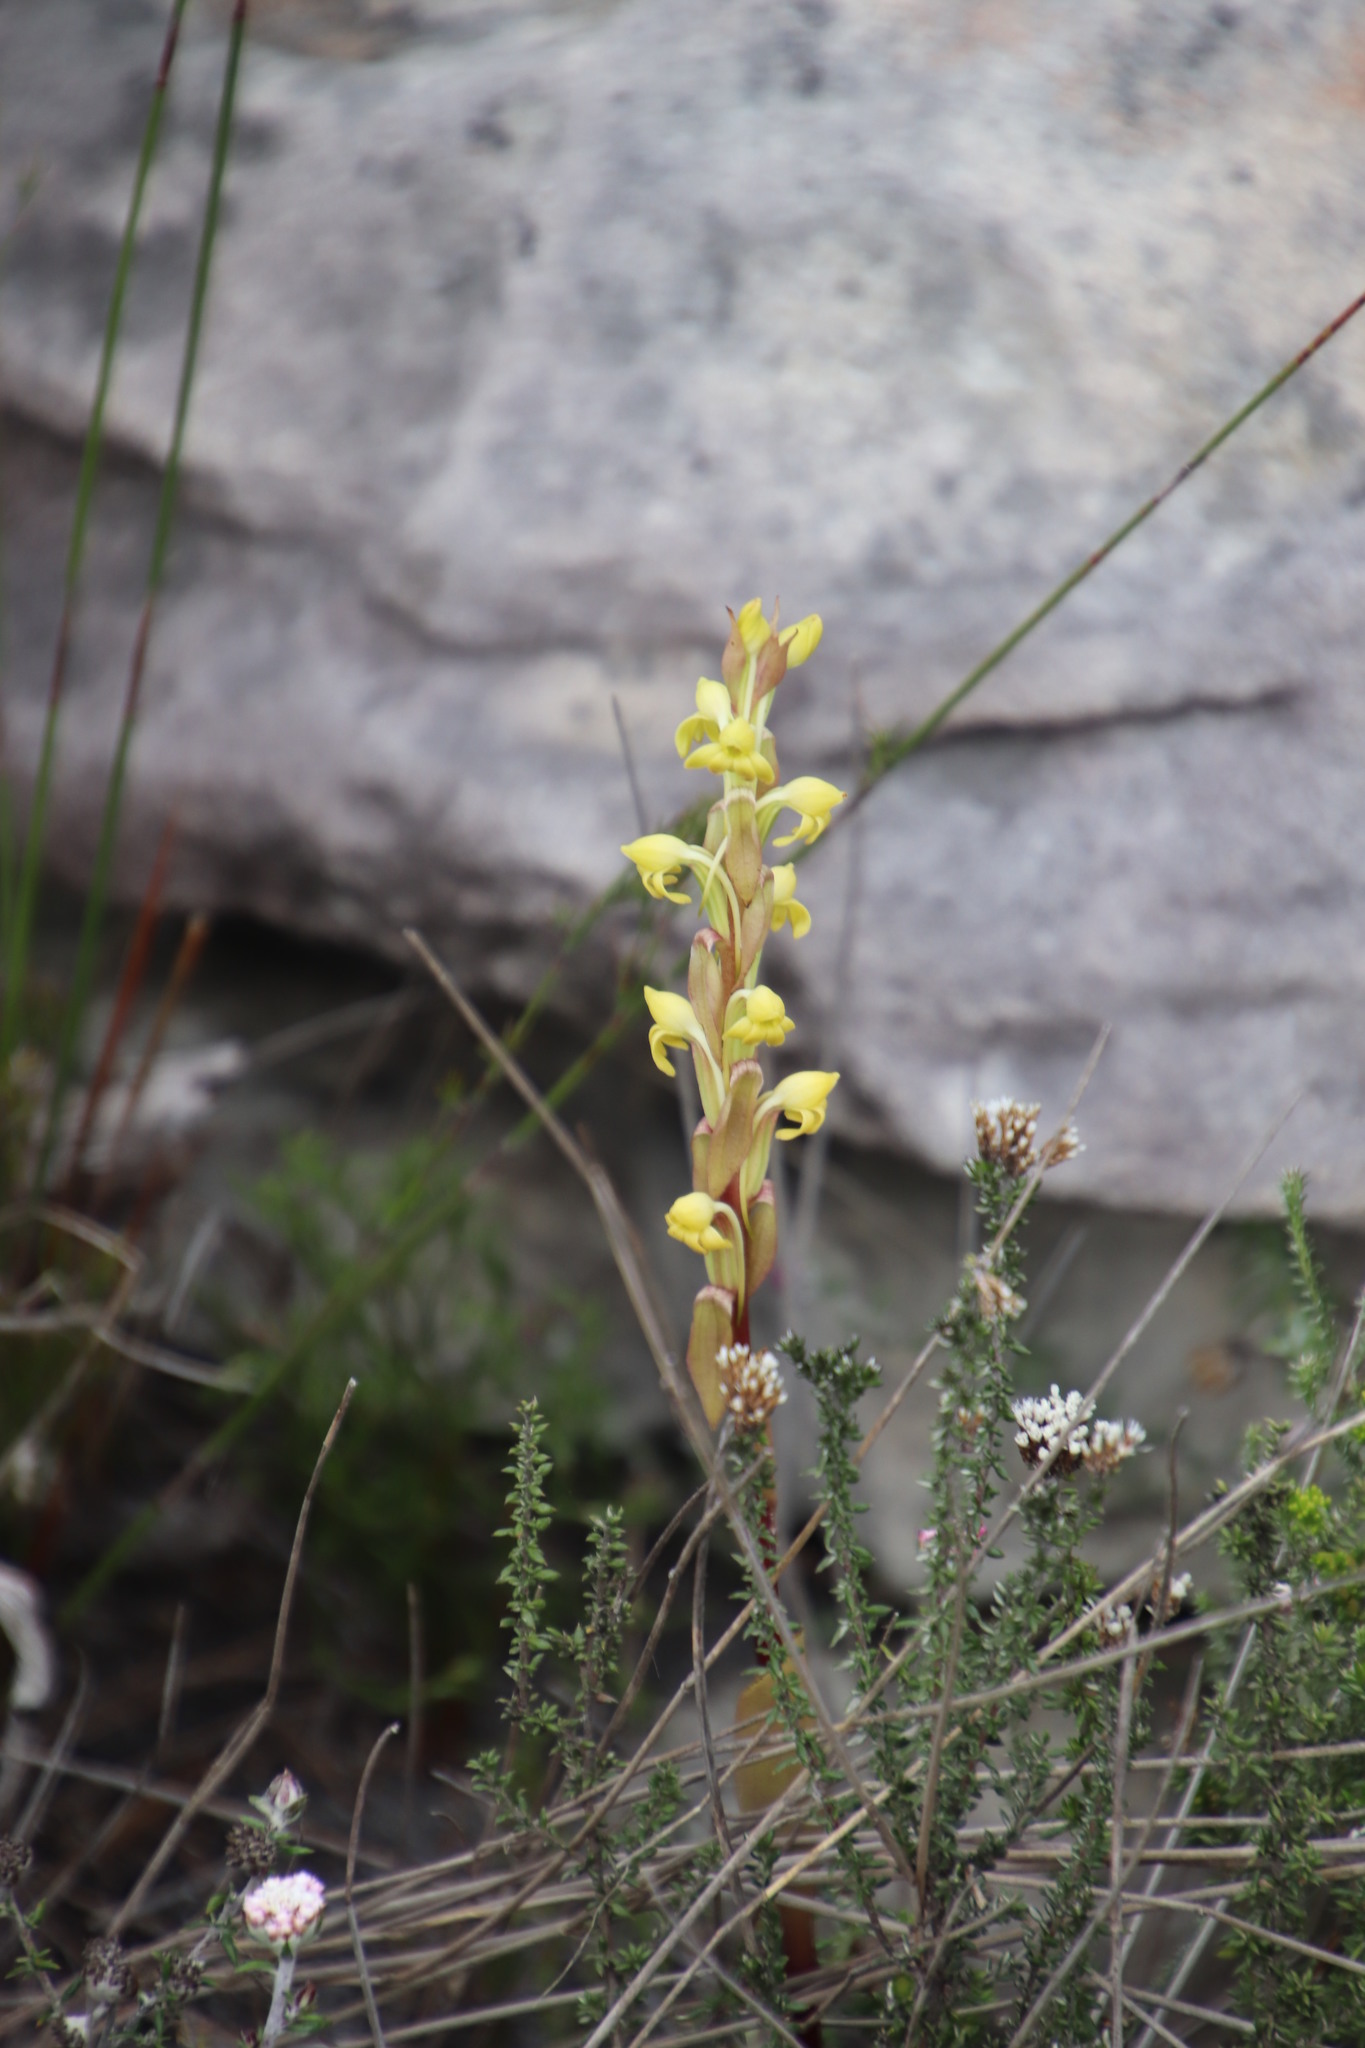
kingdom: Plantae
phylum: Tracheophyta
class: Liliopsida
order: Asparagales
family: Orchidaceae
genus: Satyrium
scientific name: Satyrium bicorne
